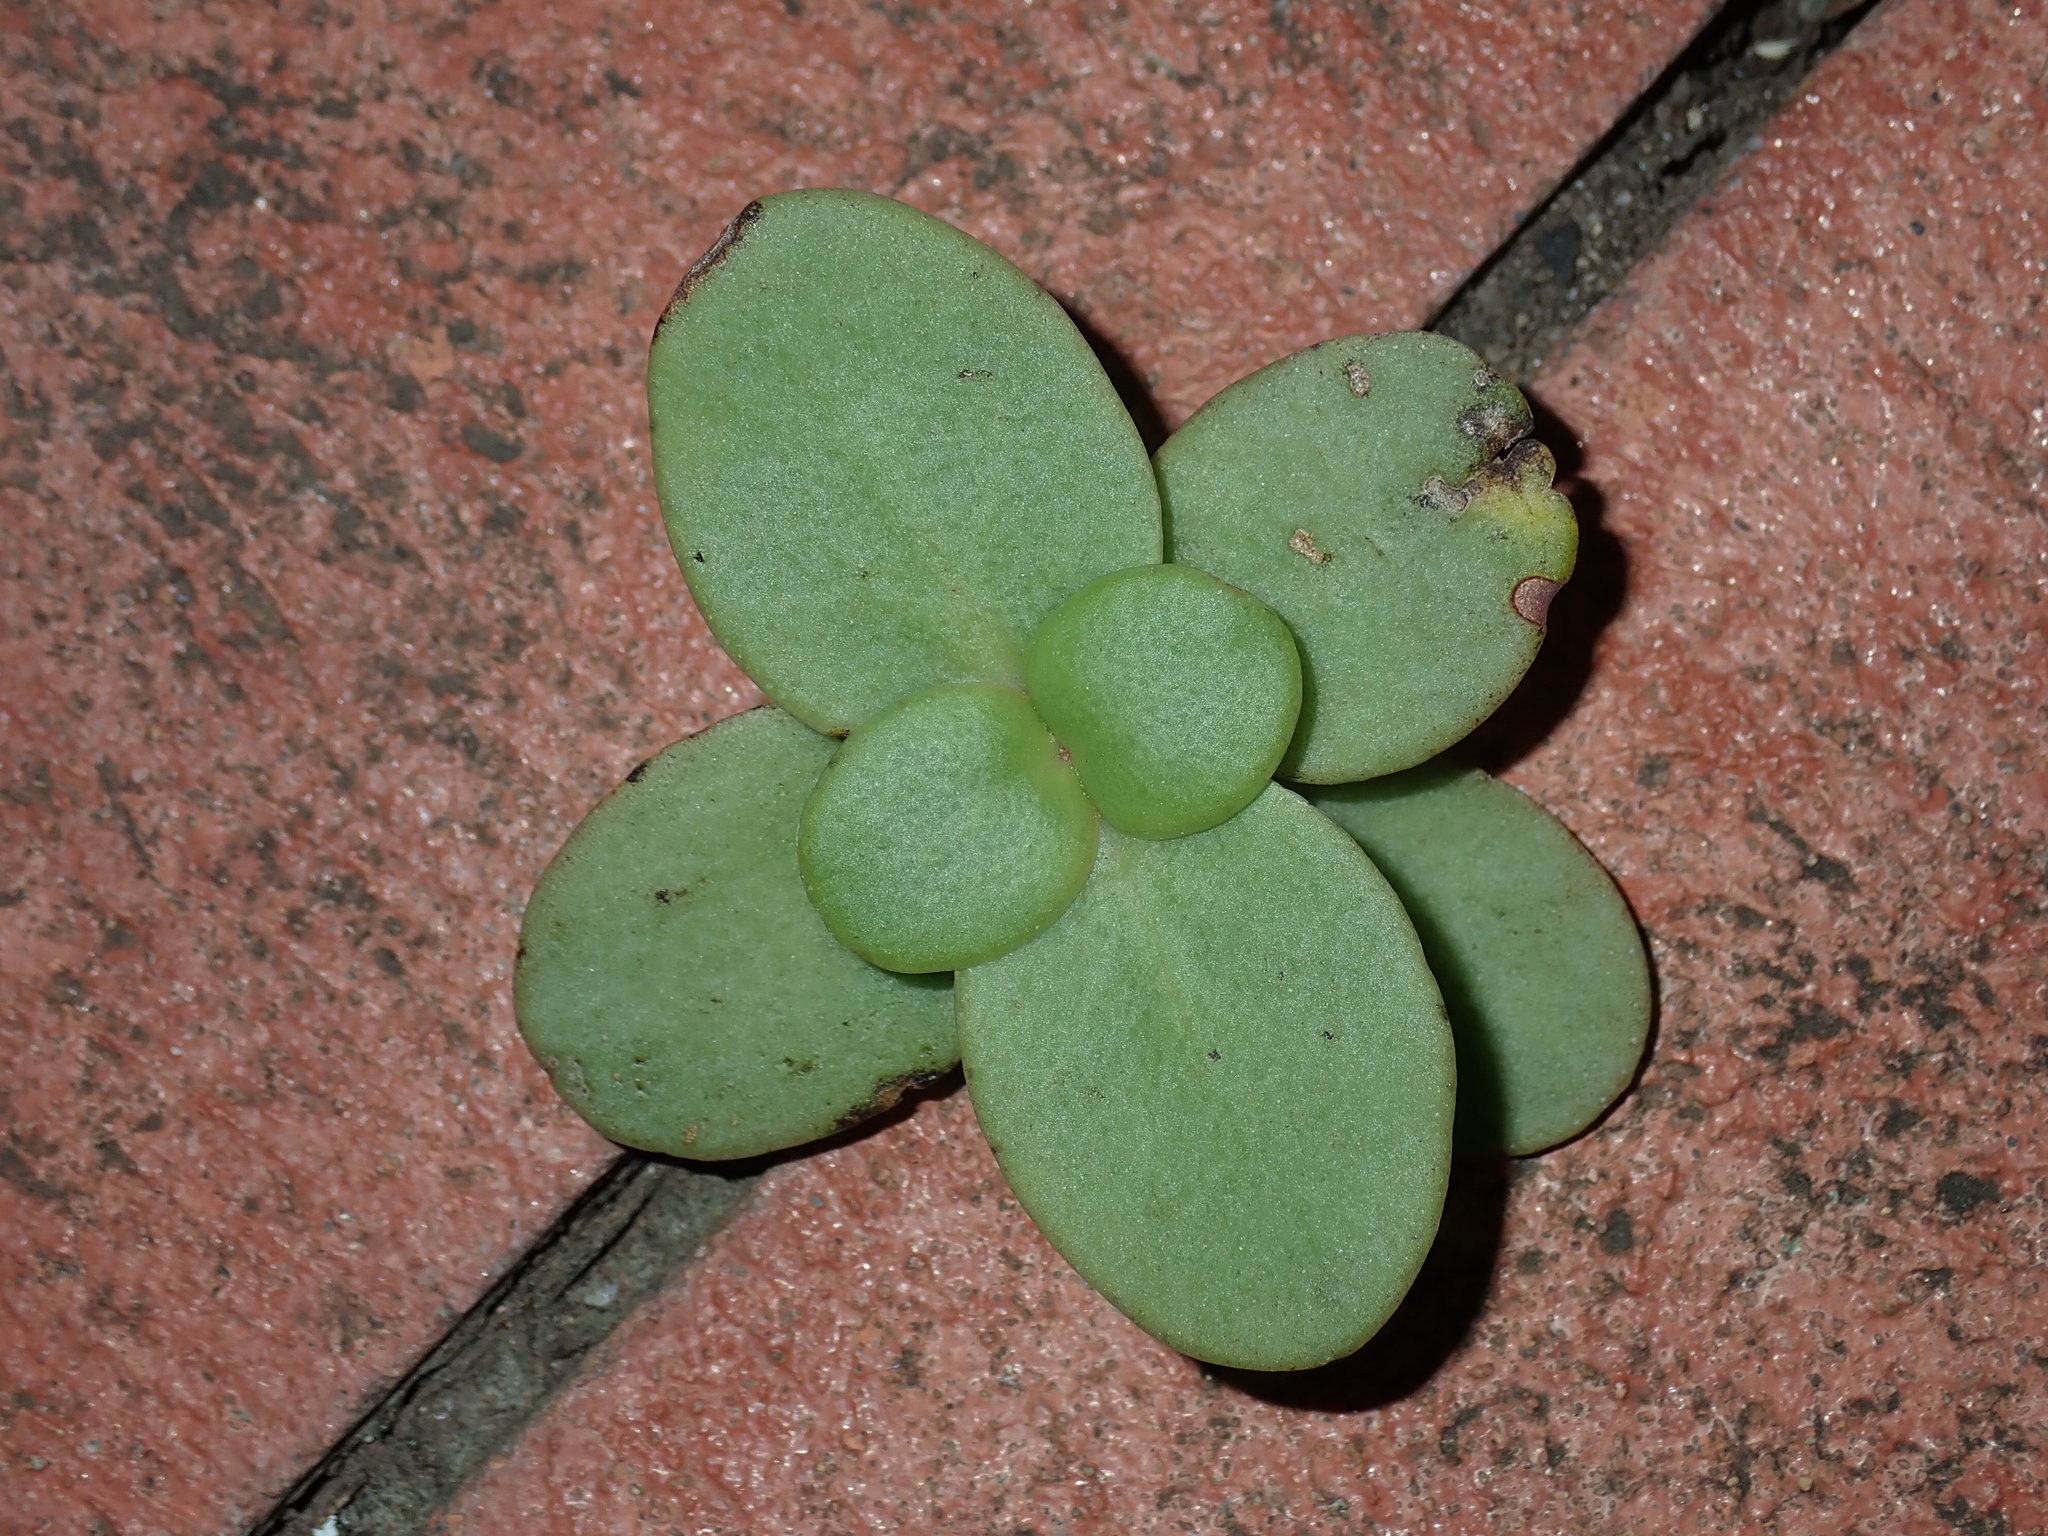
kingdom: Plantae
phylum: Tracheophyta
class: Magnoliopsida
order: Saxifragales
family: Crassulaceae
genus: Crassula
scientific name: Crassula multicava
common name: Cape province pygmyweed
